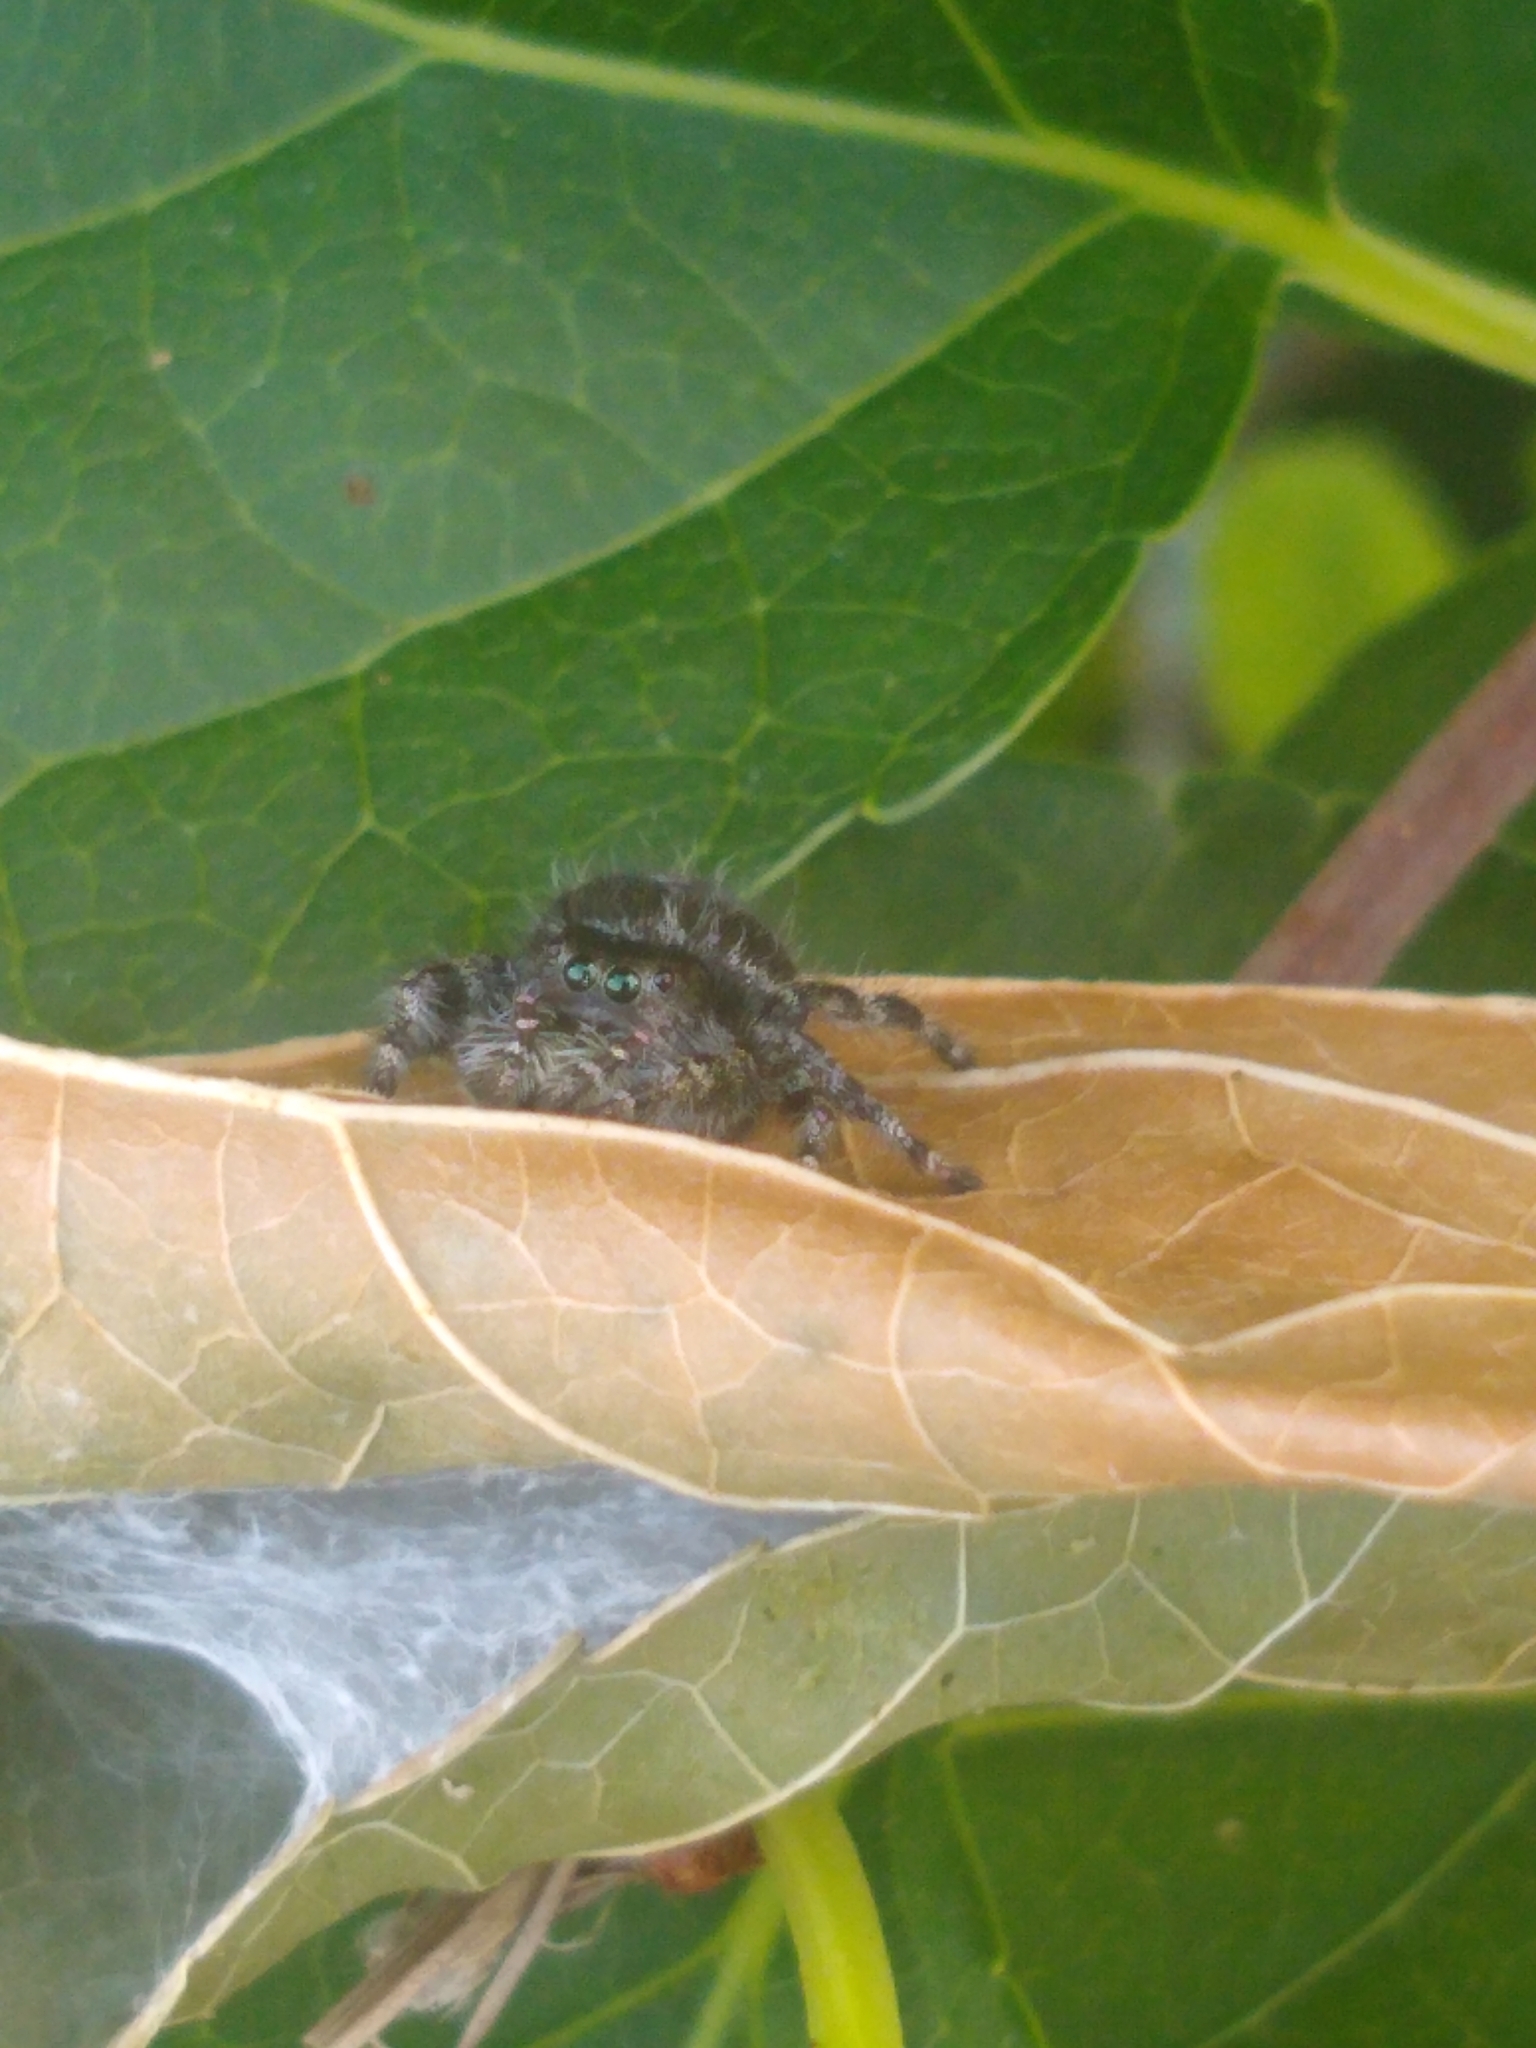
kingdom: Animalia
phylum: Arthropoda
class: Arachnida
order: Araneae
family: Salticidae
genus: Phidippus
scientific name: Phidippus audax
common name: Bold jumper
